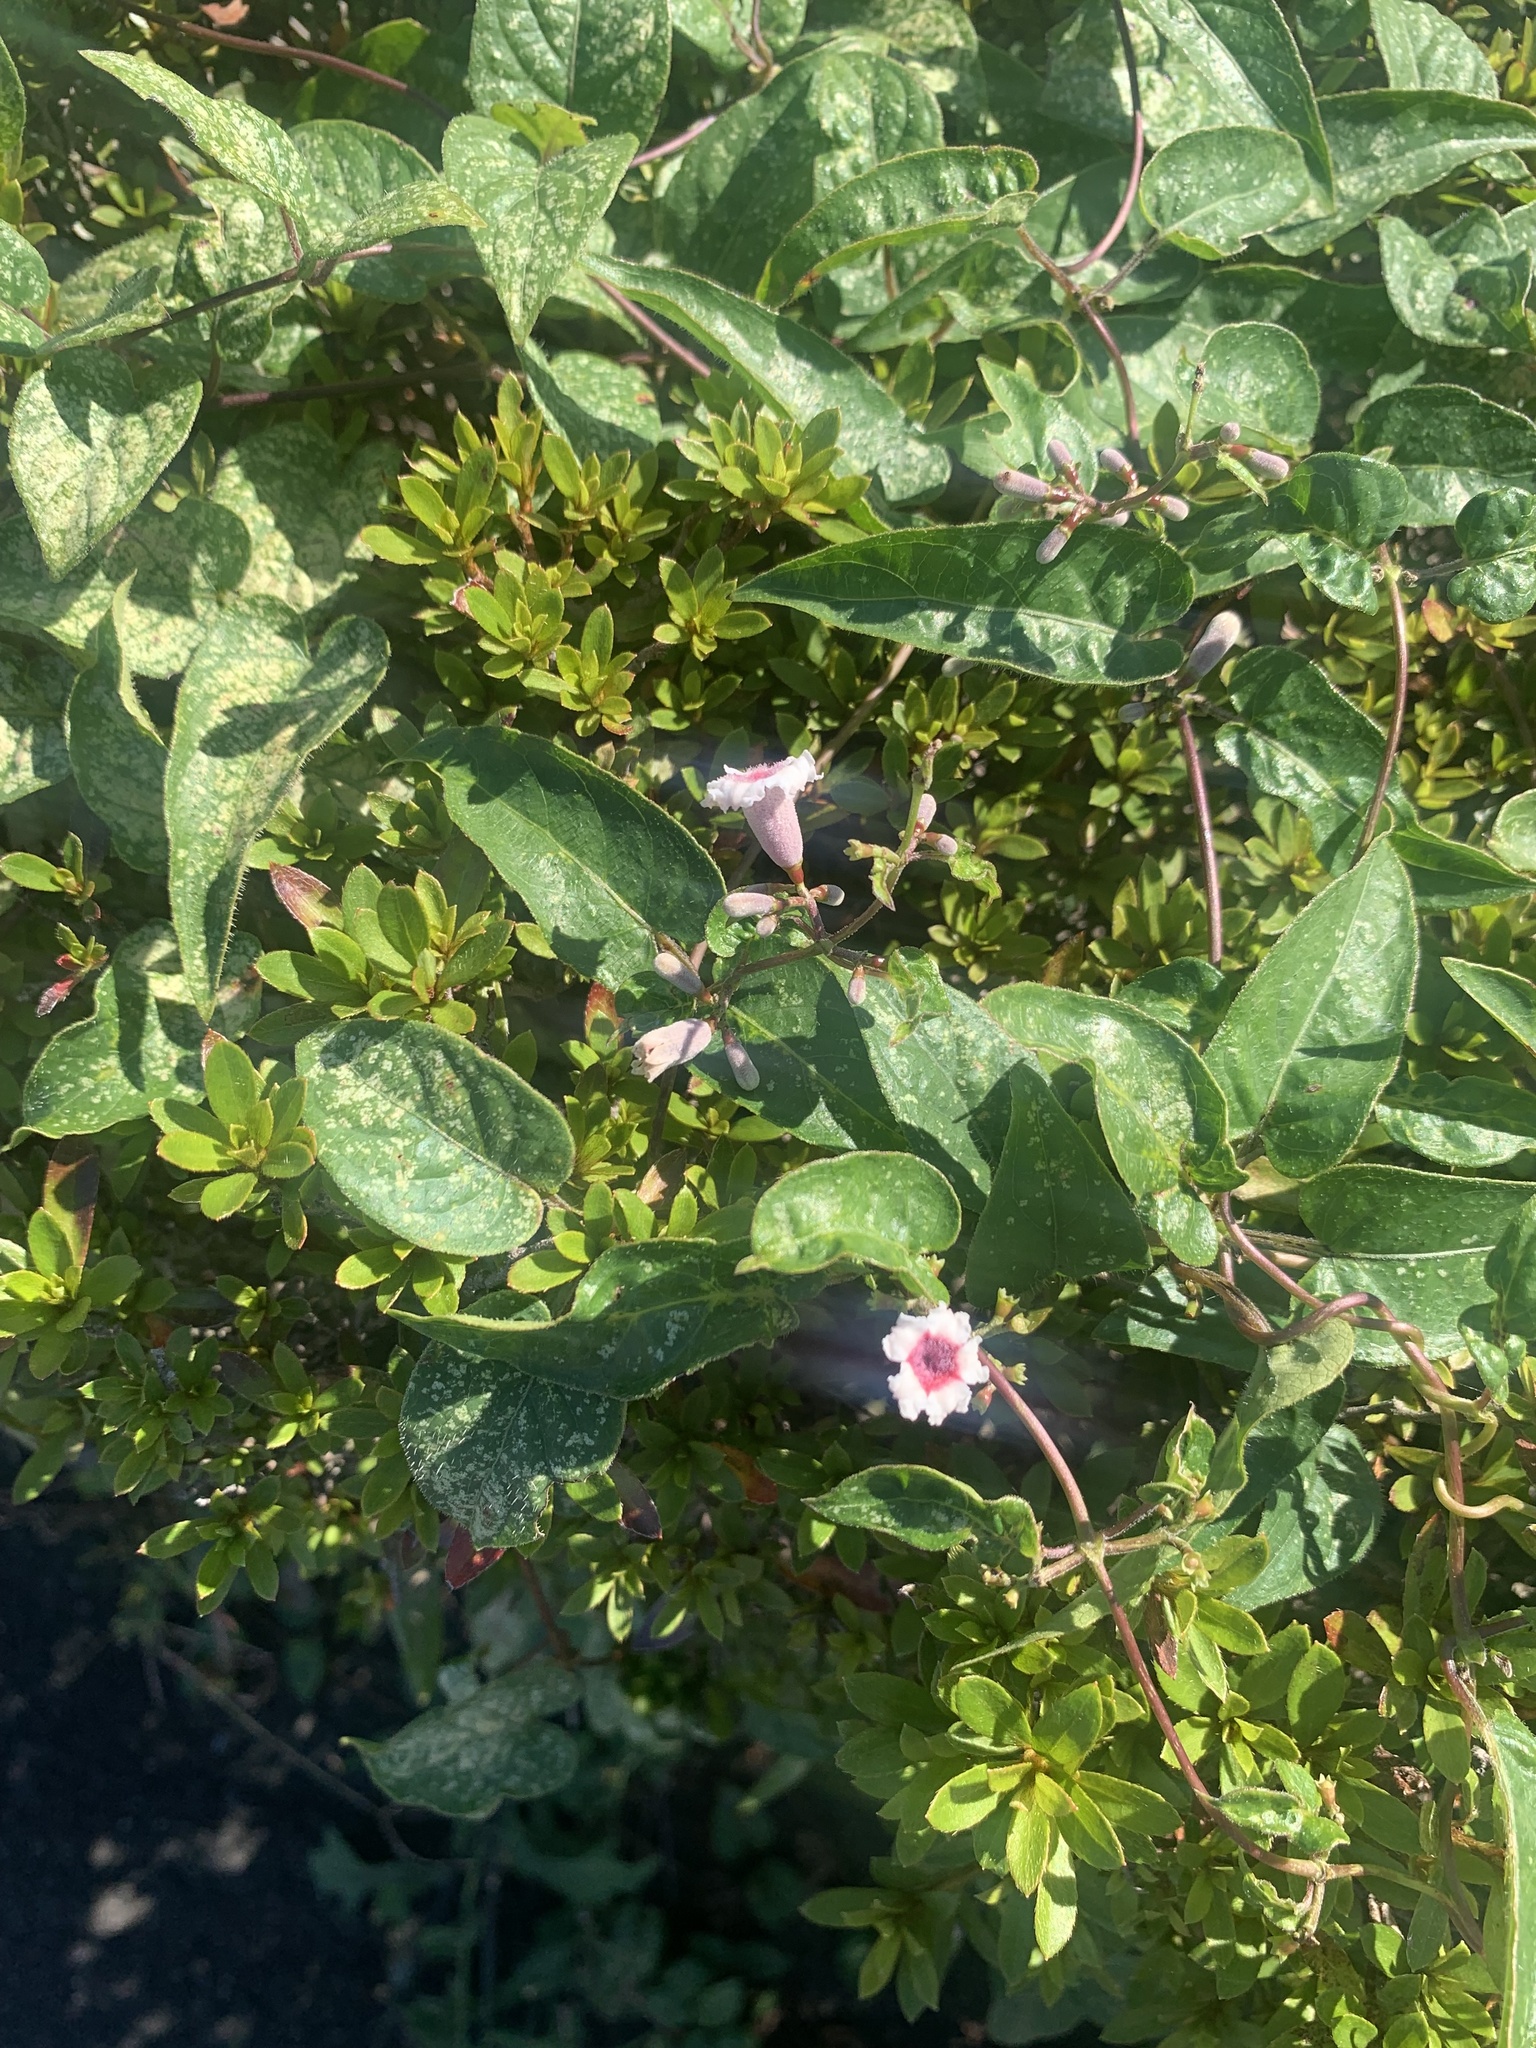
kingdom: Plantae
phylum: Tracheophyta
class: Magnoliopsida
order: Gentianales
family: Rubiaceae
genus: Paederia
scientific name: Paederia foetida
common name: Stinkvine
